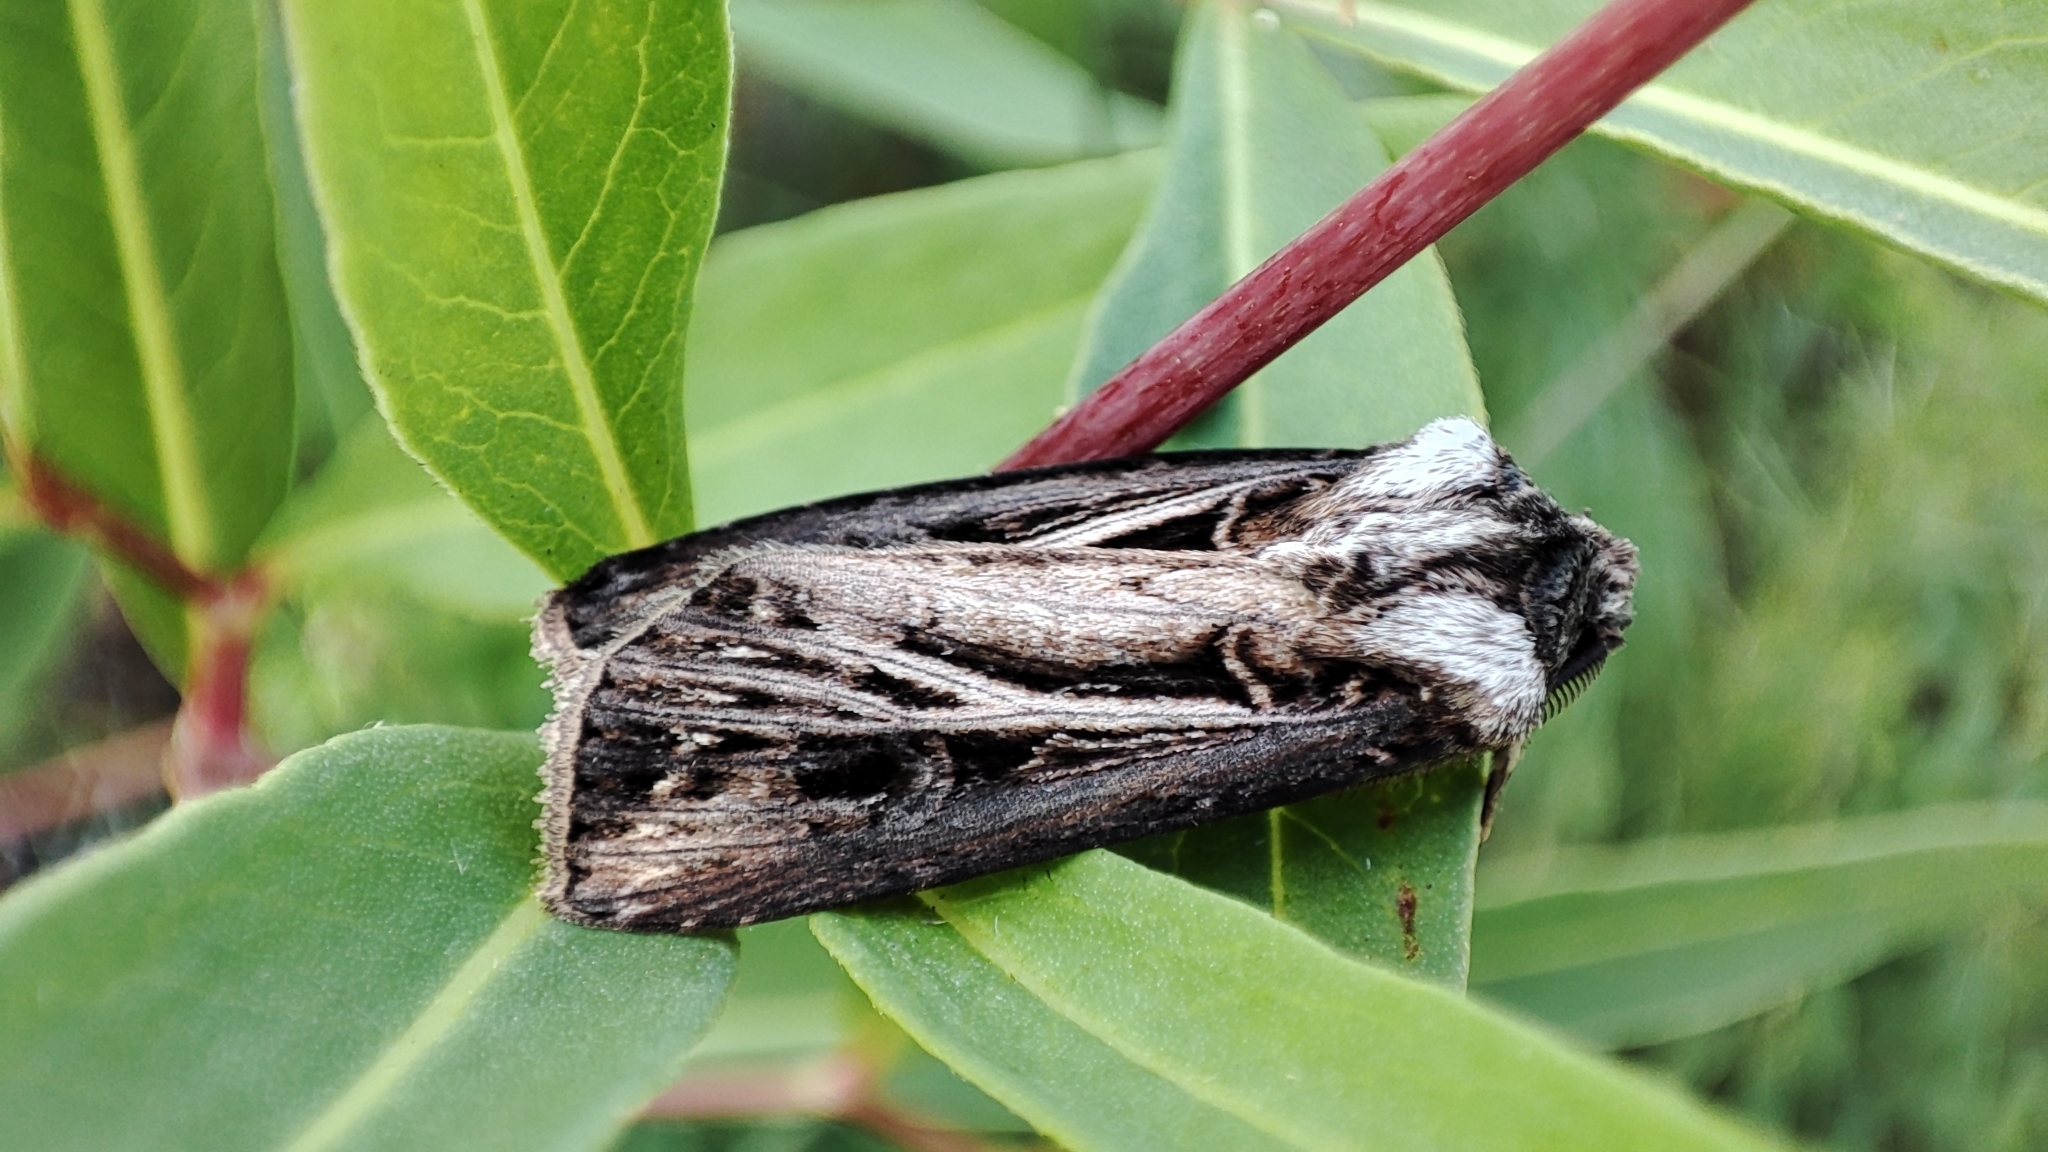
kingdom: Animalia
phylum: Arthropoda
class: Insecta
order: Lepidoptera
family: Noctuidae
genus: Agrotis
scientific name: Agrotis trifurca
